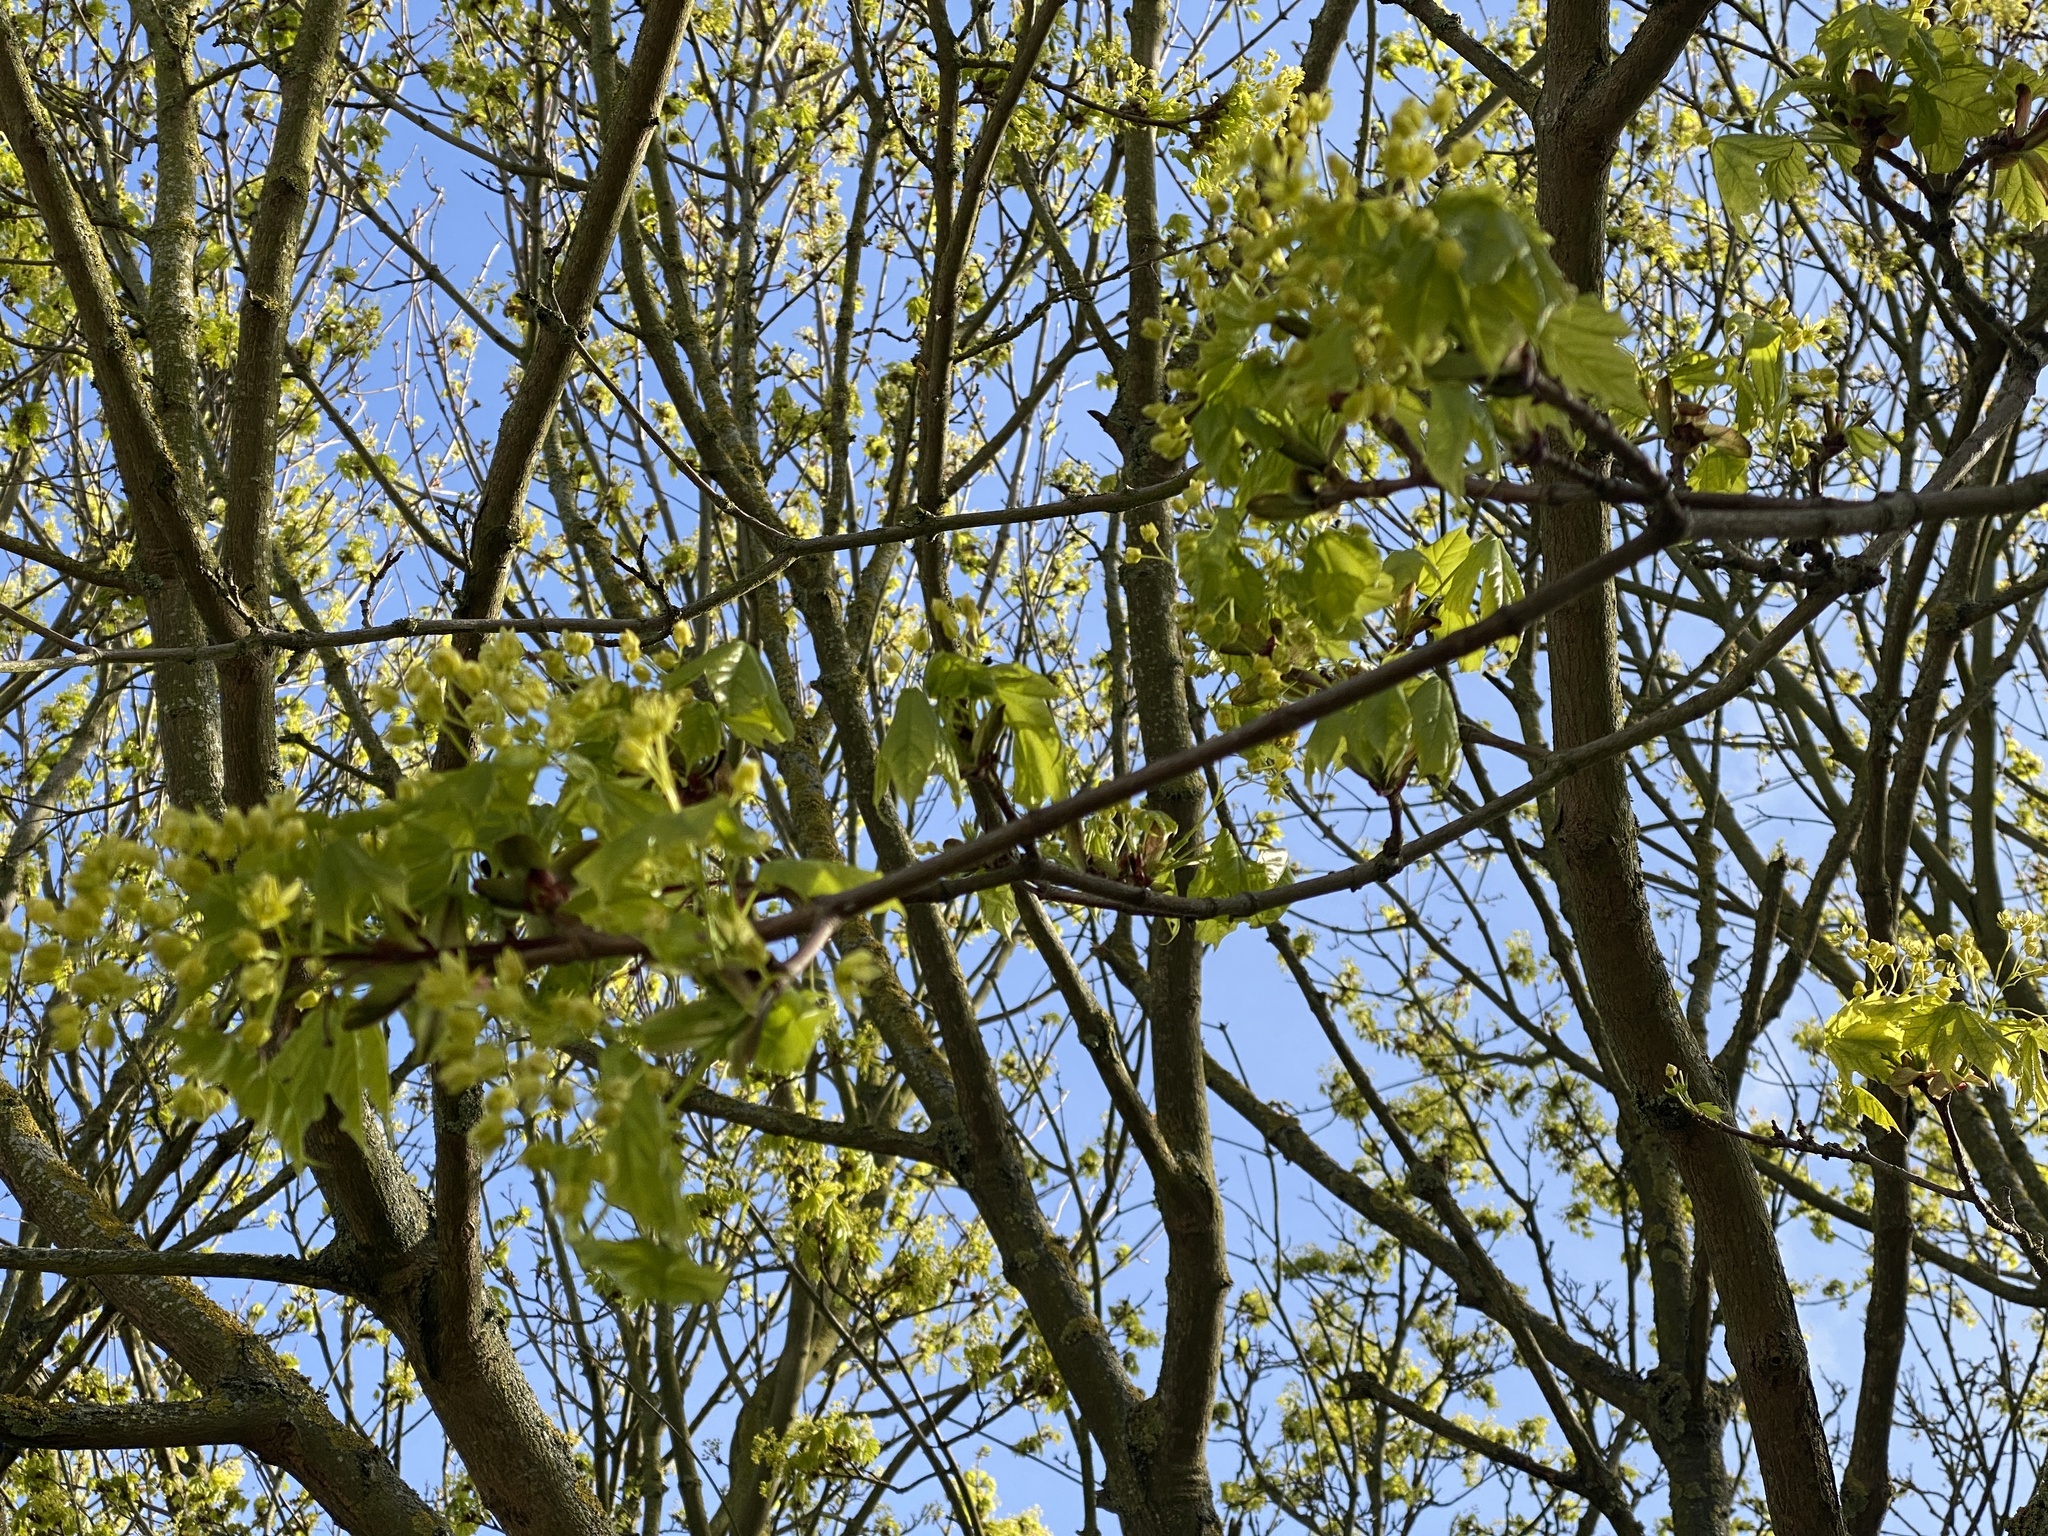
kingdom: Plantae
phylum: Tracheophyta
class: Magnoliopsida
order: Sapindales
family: Sapindaceae
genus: Acer
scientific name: Acer platanoides
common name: Norway maple
